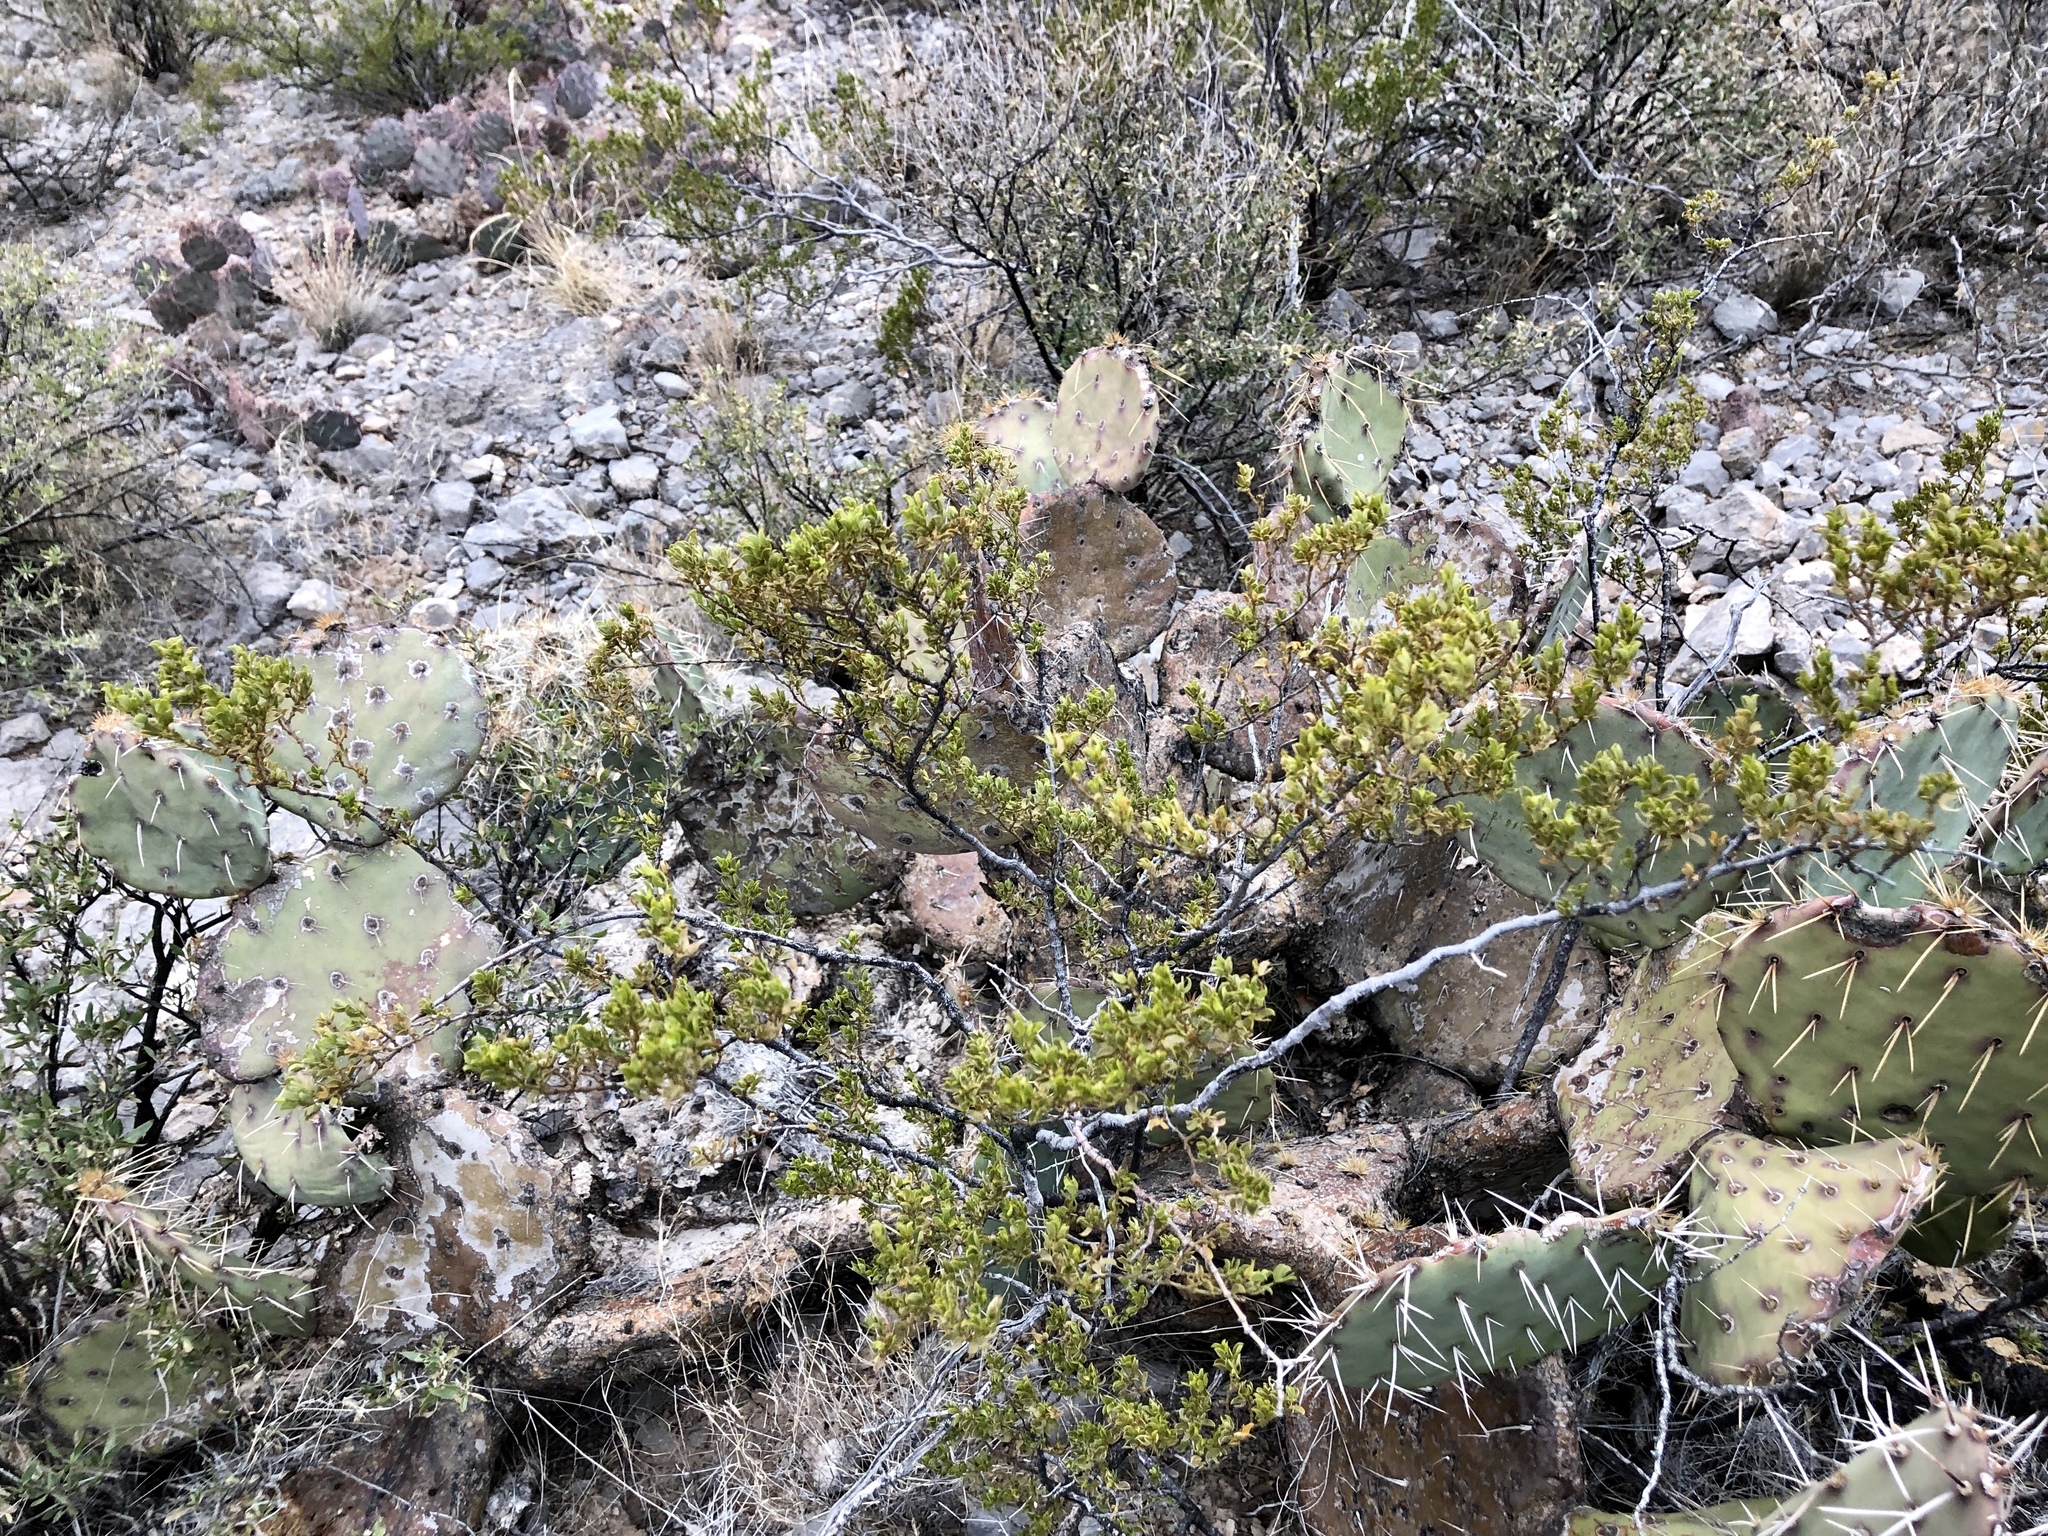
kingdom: Plantae
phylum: Tracheophyta
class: Magnoliopsida
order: Zygophyllales
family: Zygophyllaceae
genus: Larrea
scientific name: Larrea tridentata
